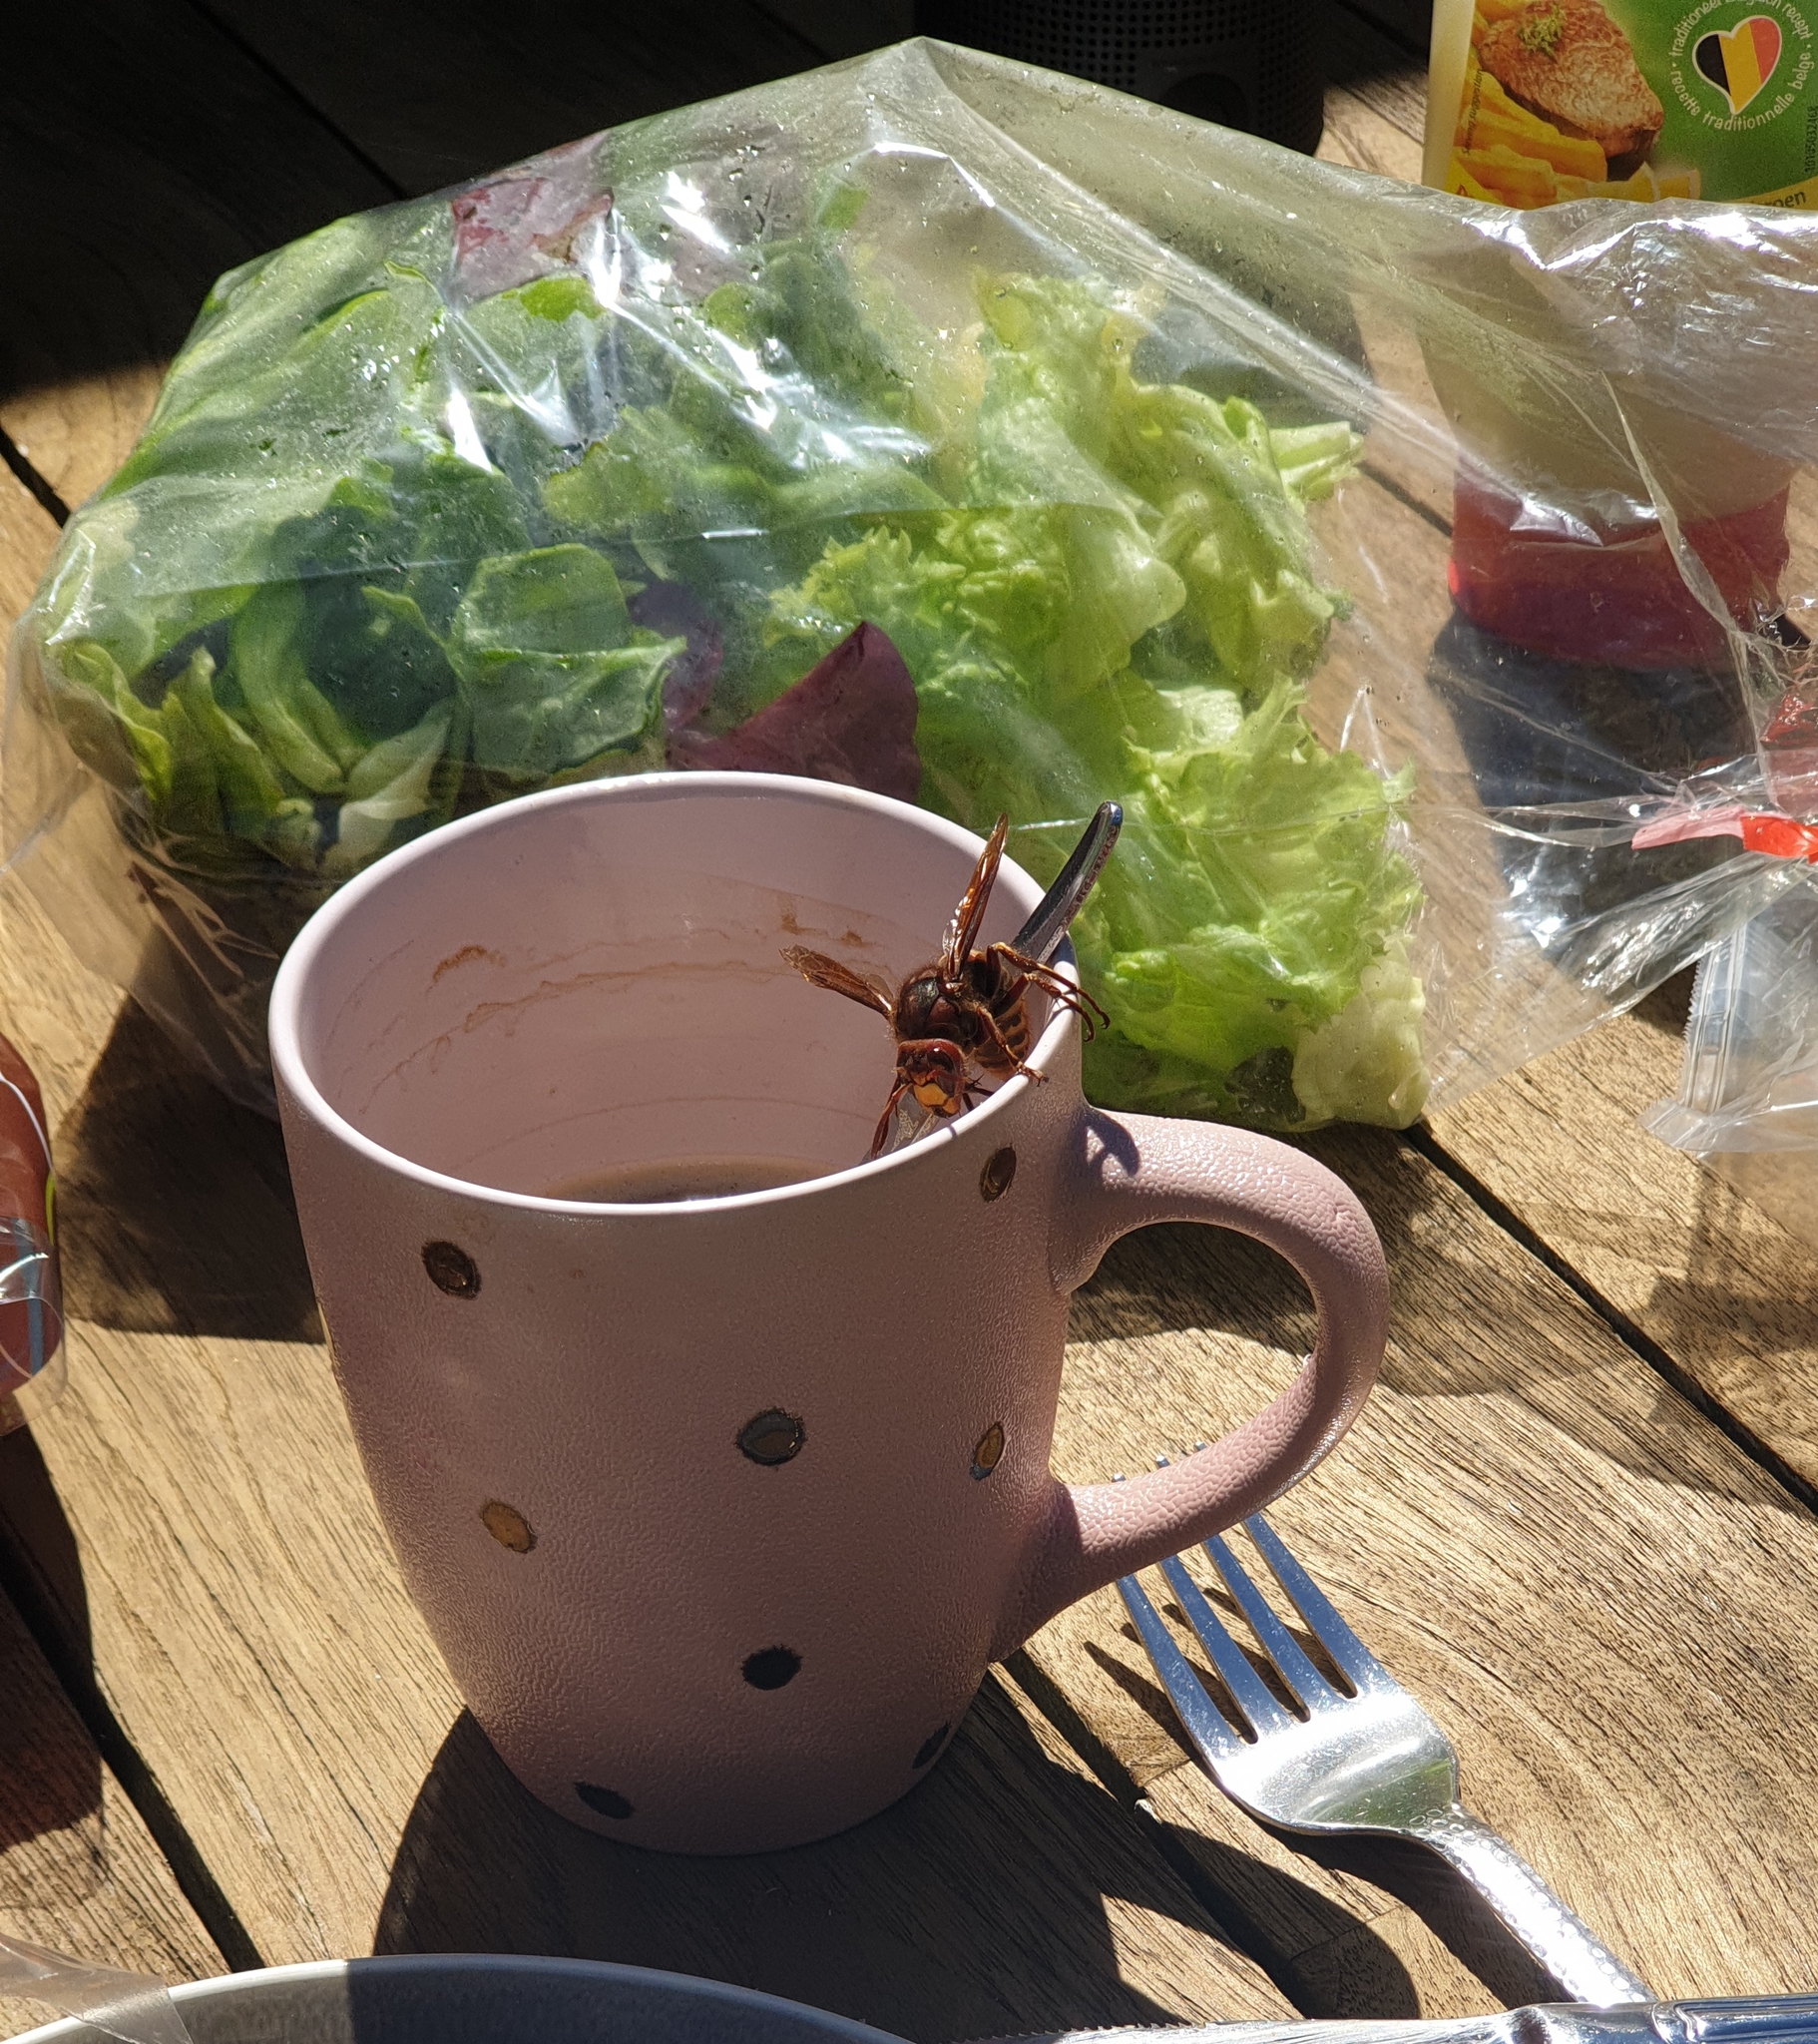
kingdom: Animalia
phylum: Arthropoda
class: Insecta
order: Hymenoptera
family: Vespidae
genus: Vespa
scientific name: Vespa crabro
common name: Hornet
